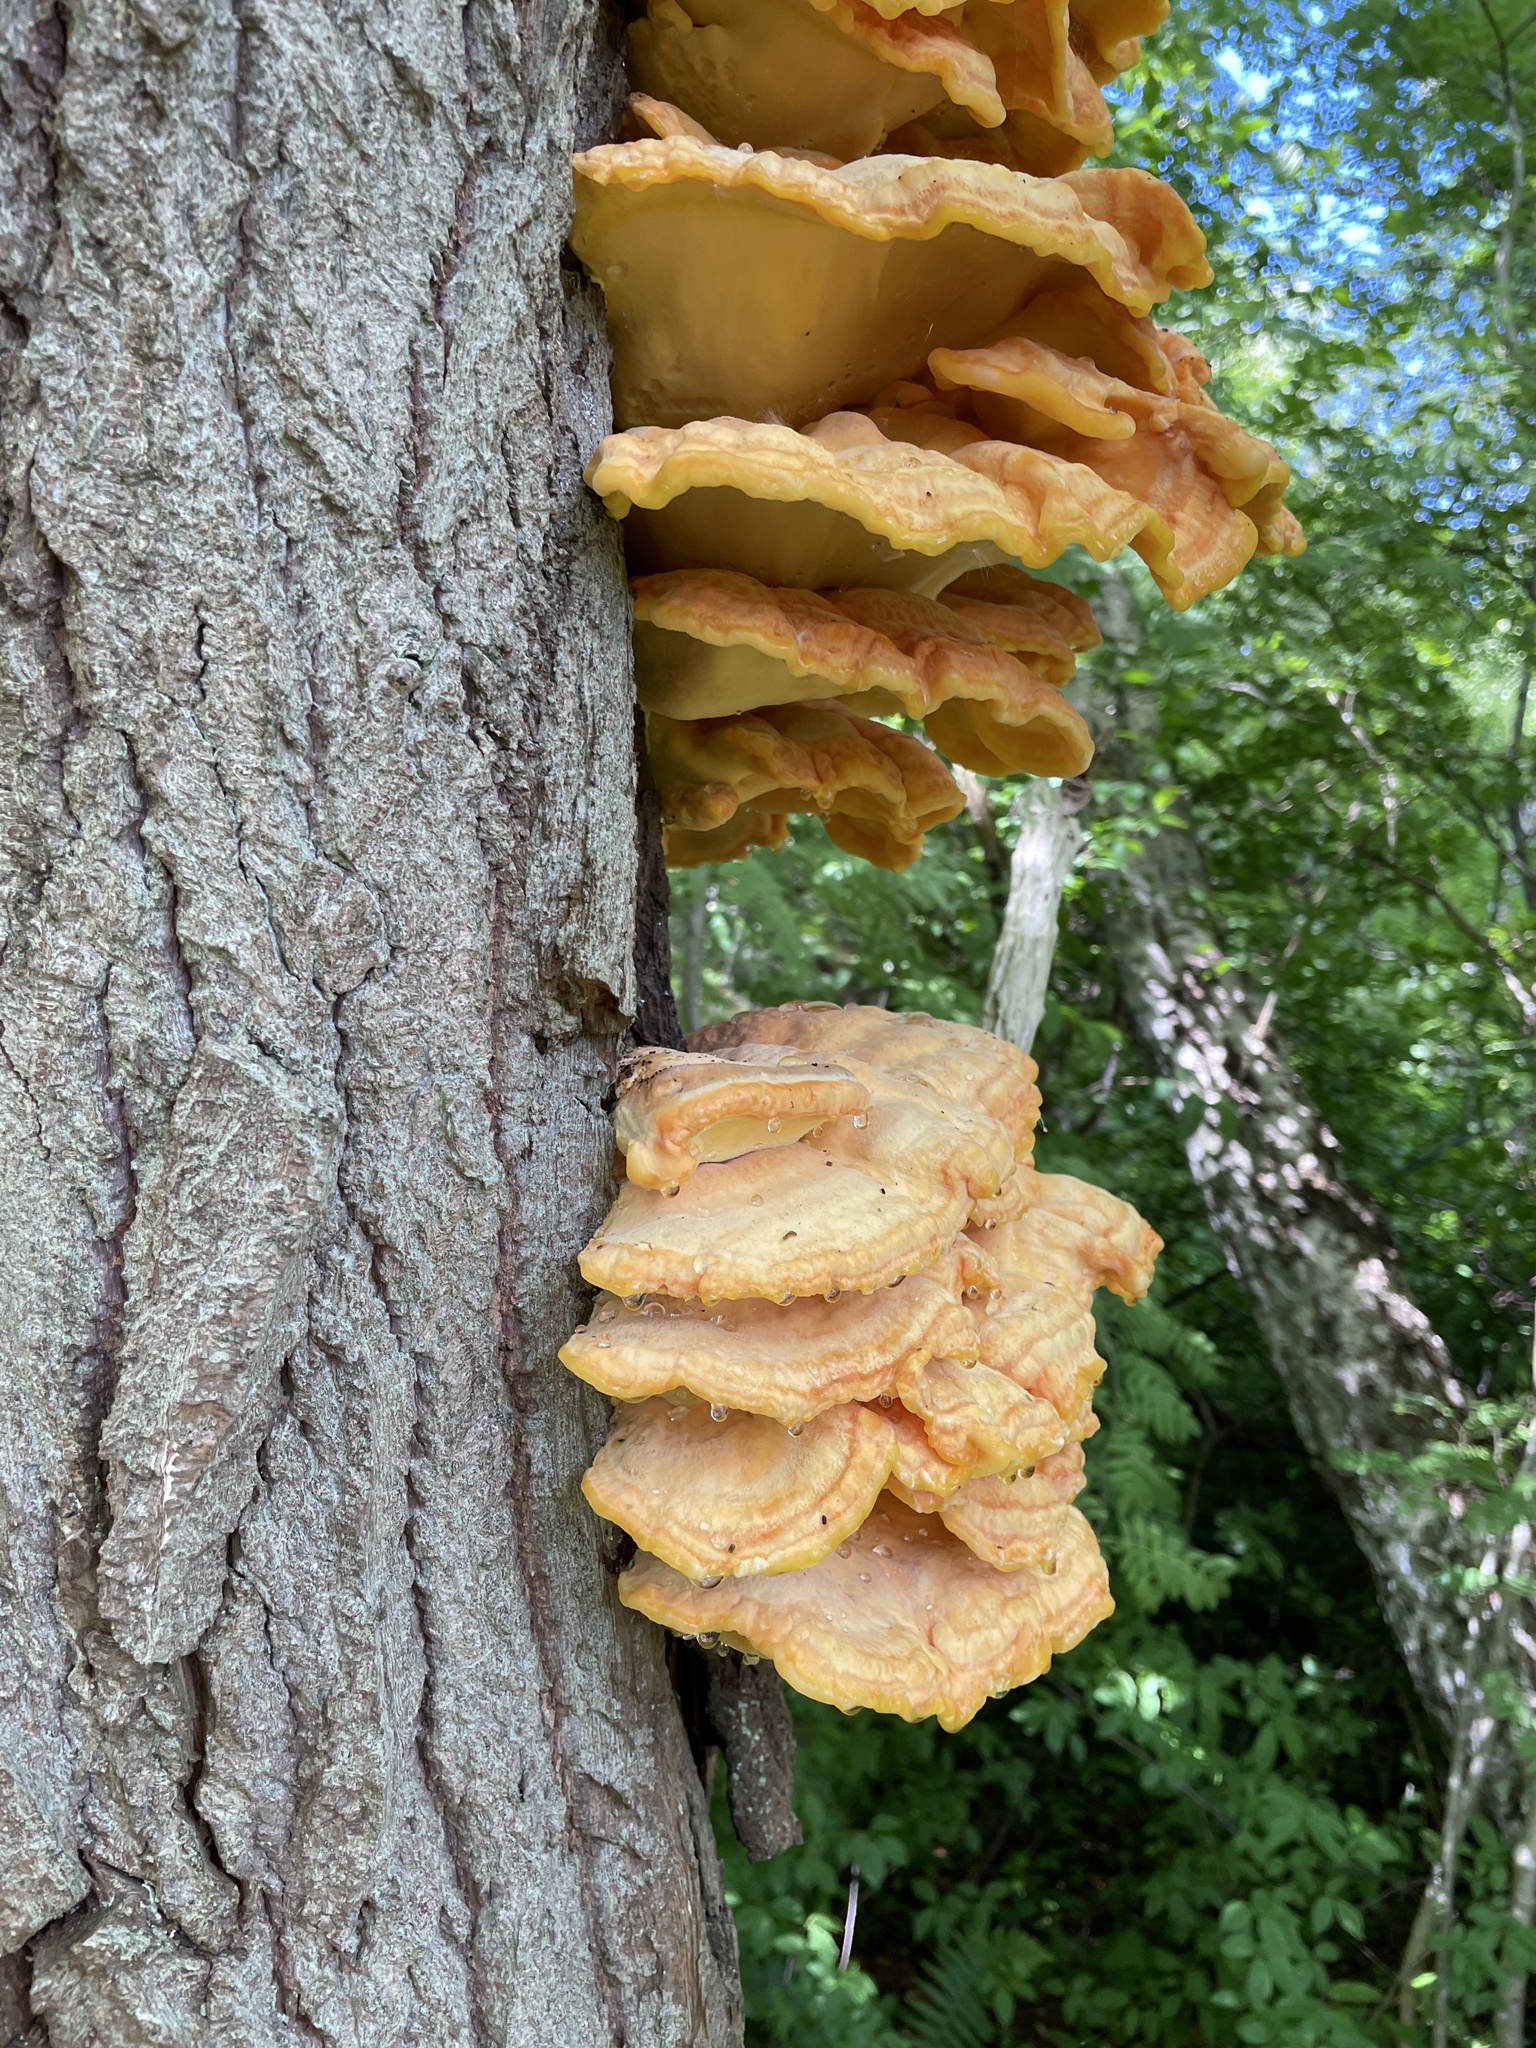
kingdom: Fungi
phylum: Basidiomycota
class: Agaricomycetes
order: Polyporales
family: Laetiporaceae
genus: Laetiporus
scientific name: Laetiporus sulphureus
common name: Chicken of the woods
